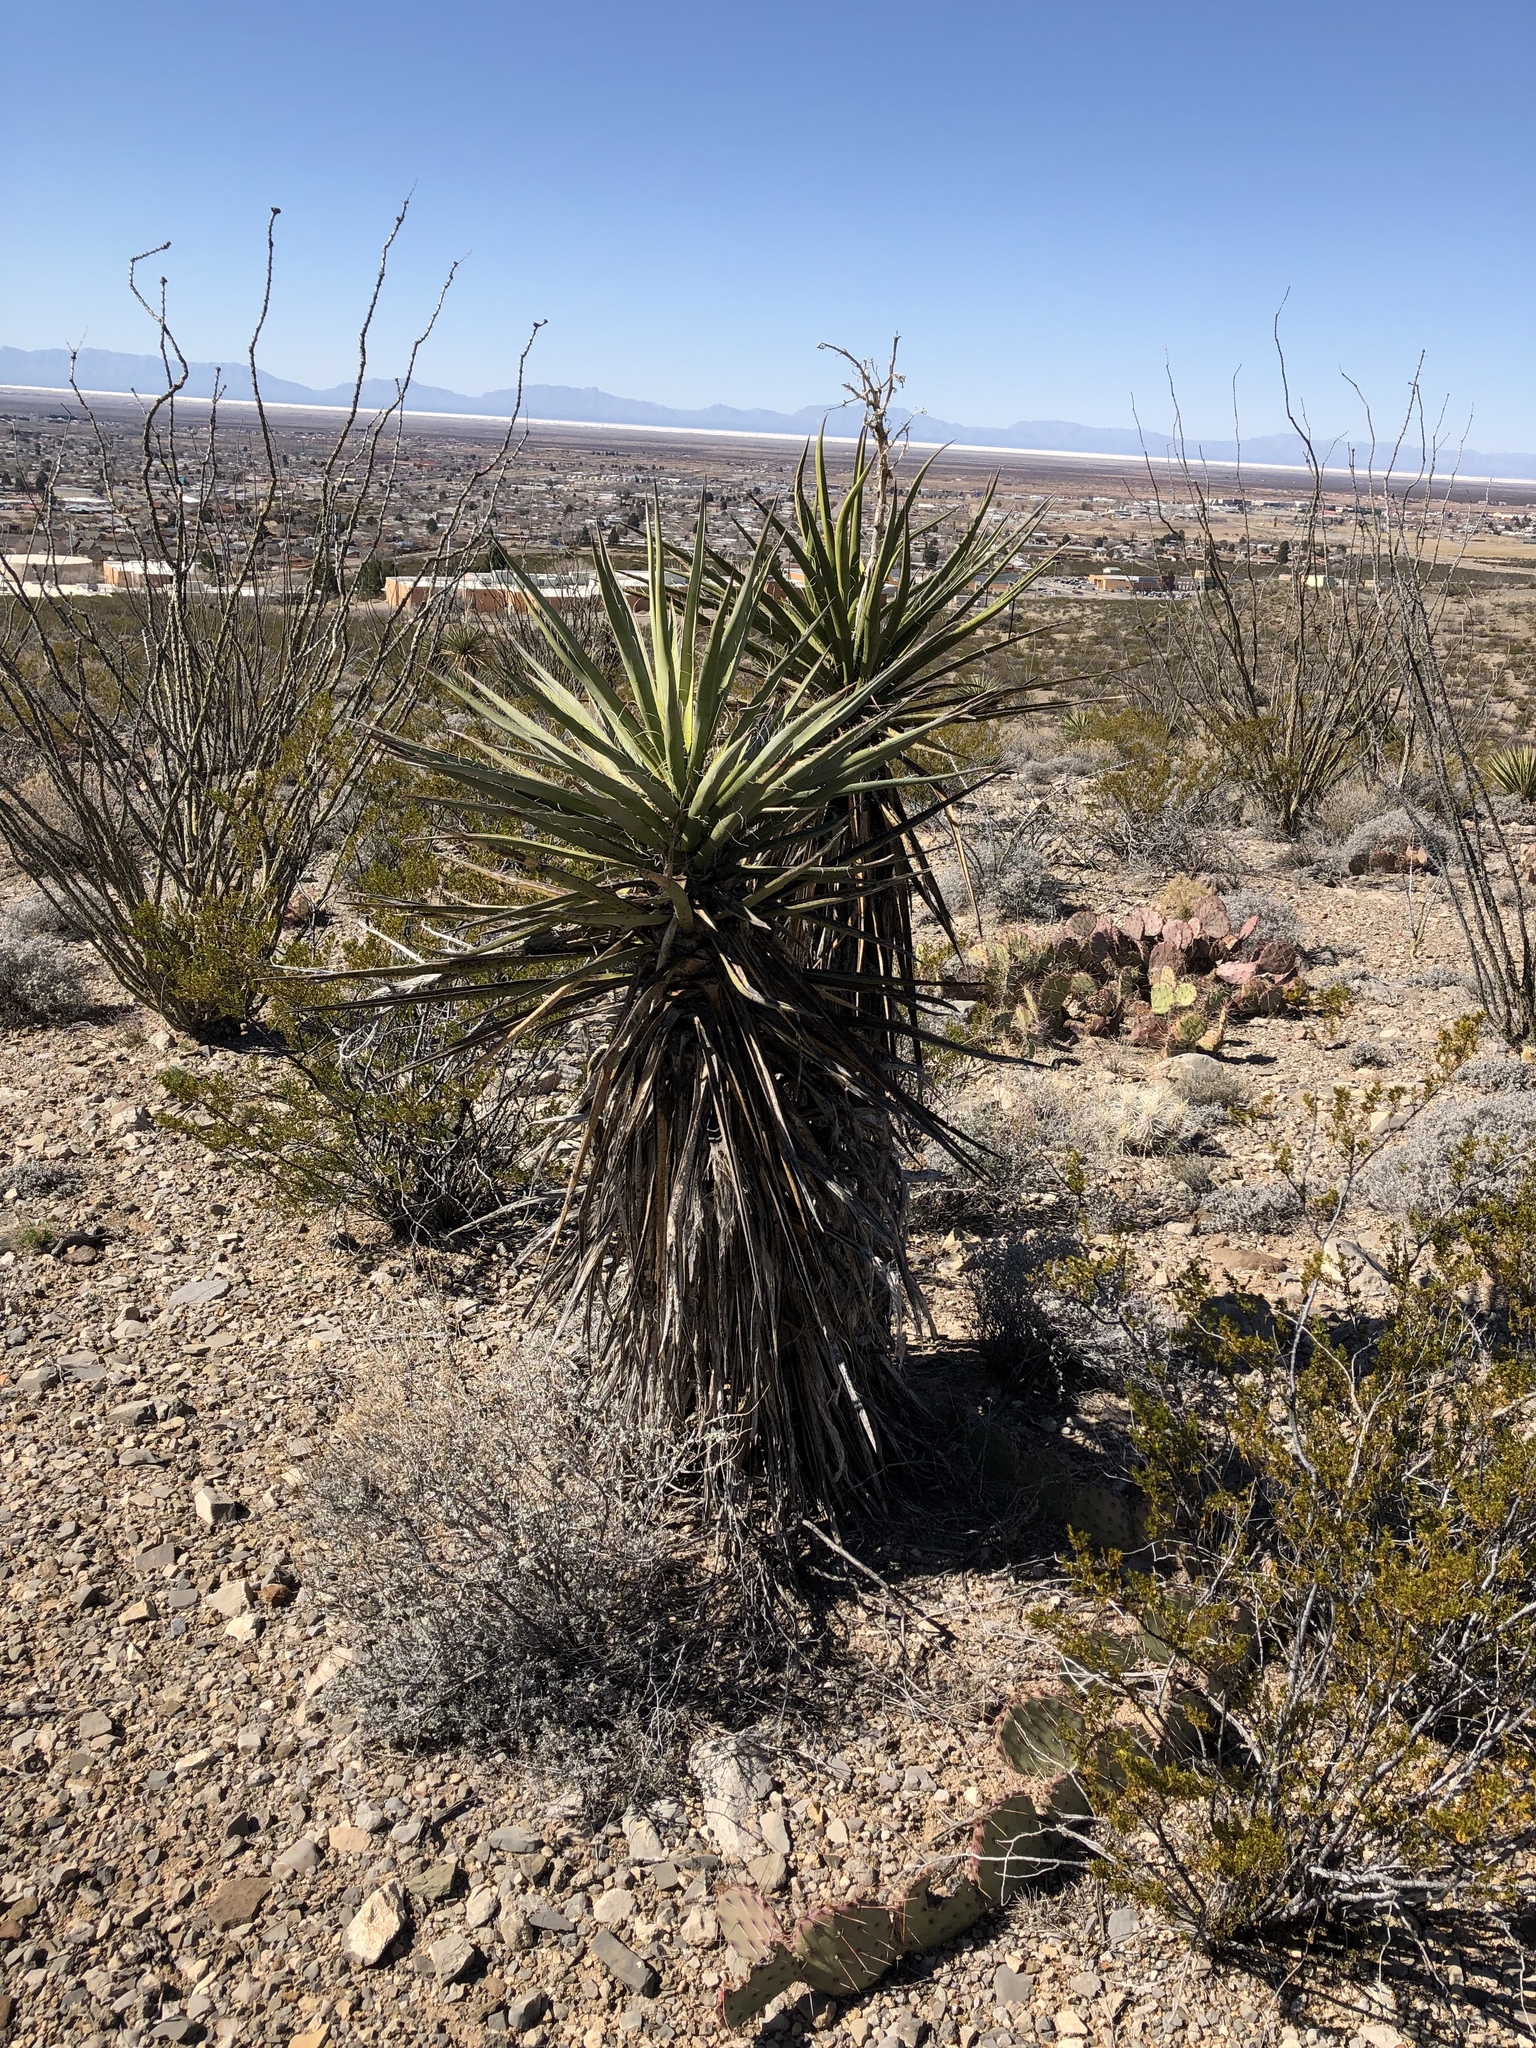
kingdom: Plantae
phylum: Tracheophyta
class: Liliopsida
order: Asparagales
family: Asparagaceae
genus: Yucca
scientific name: Yucca treculiana
